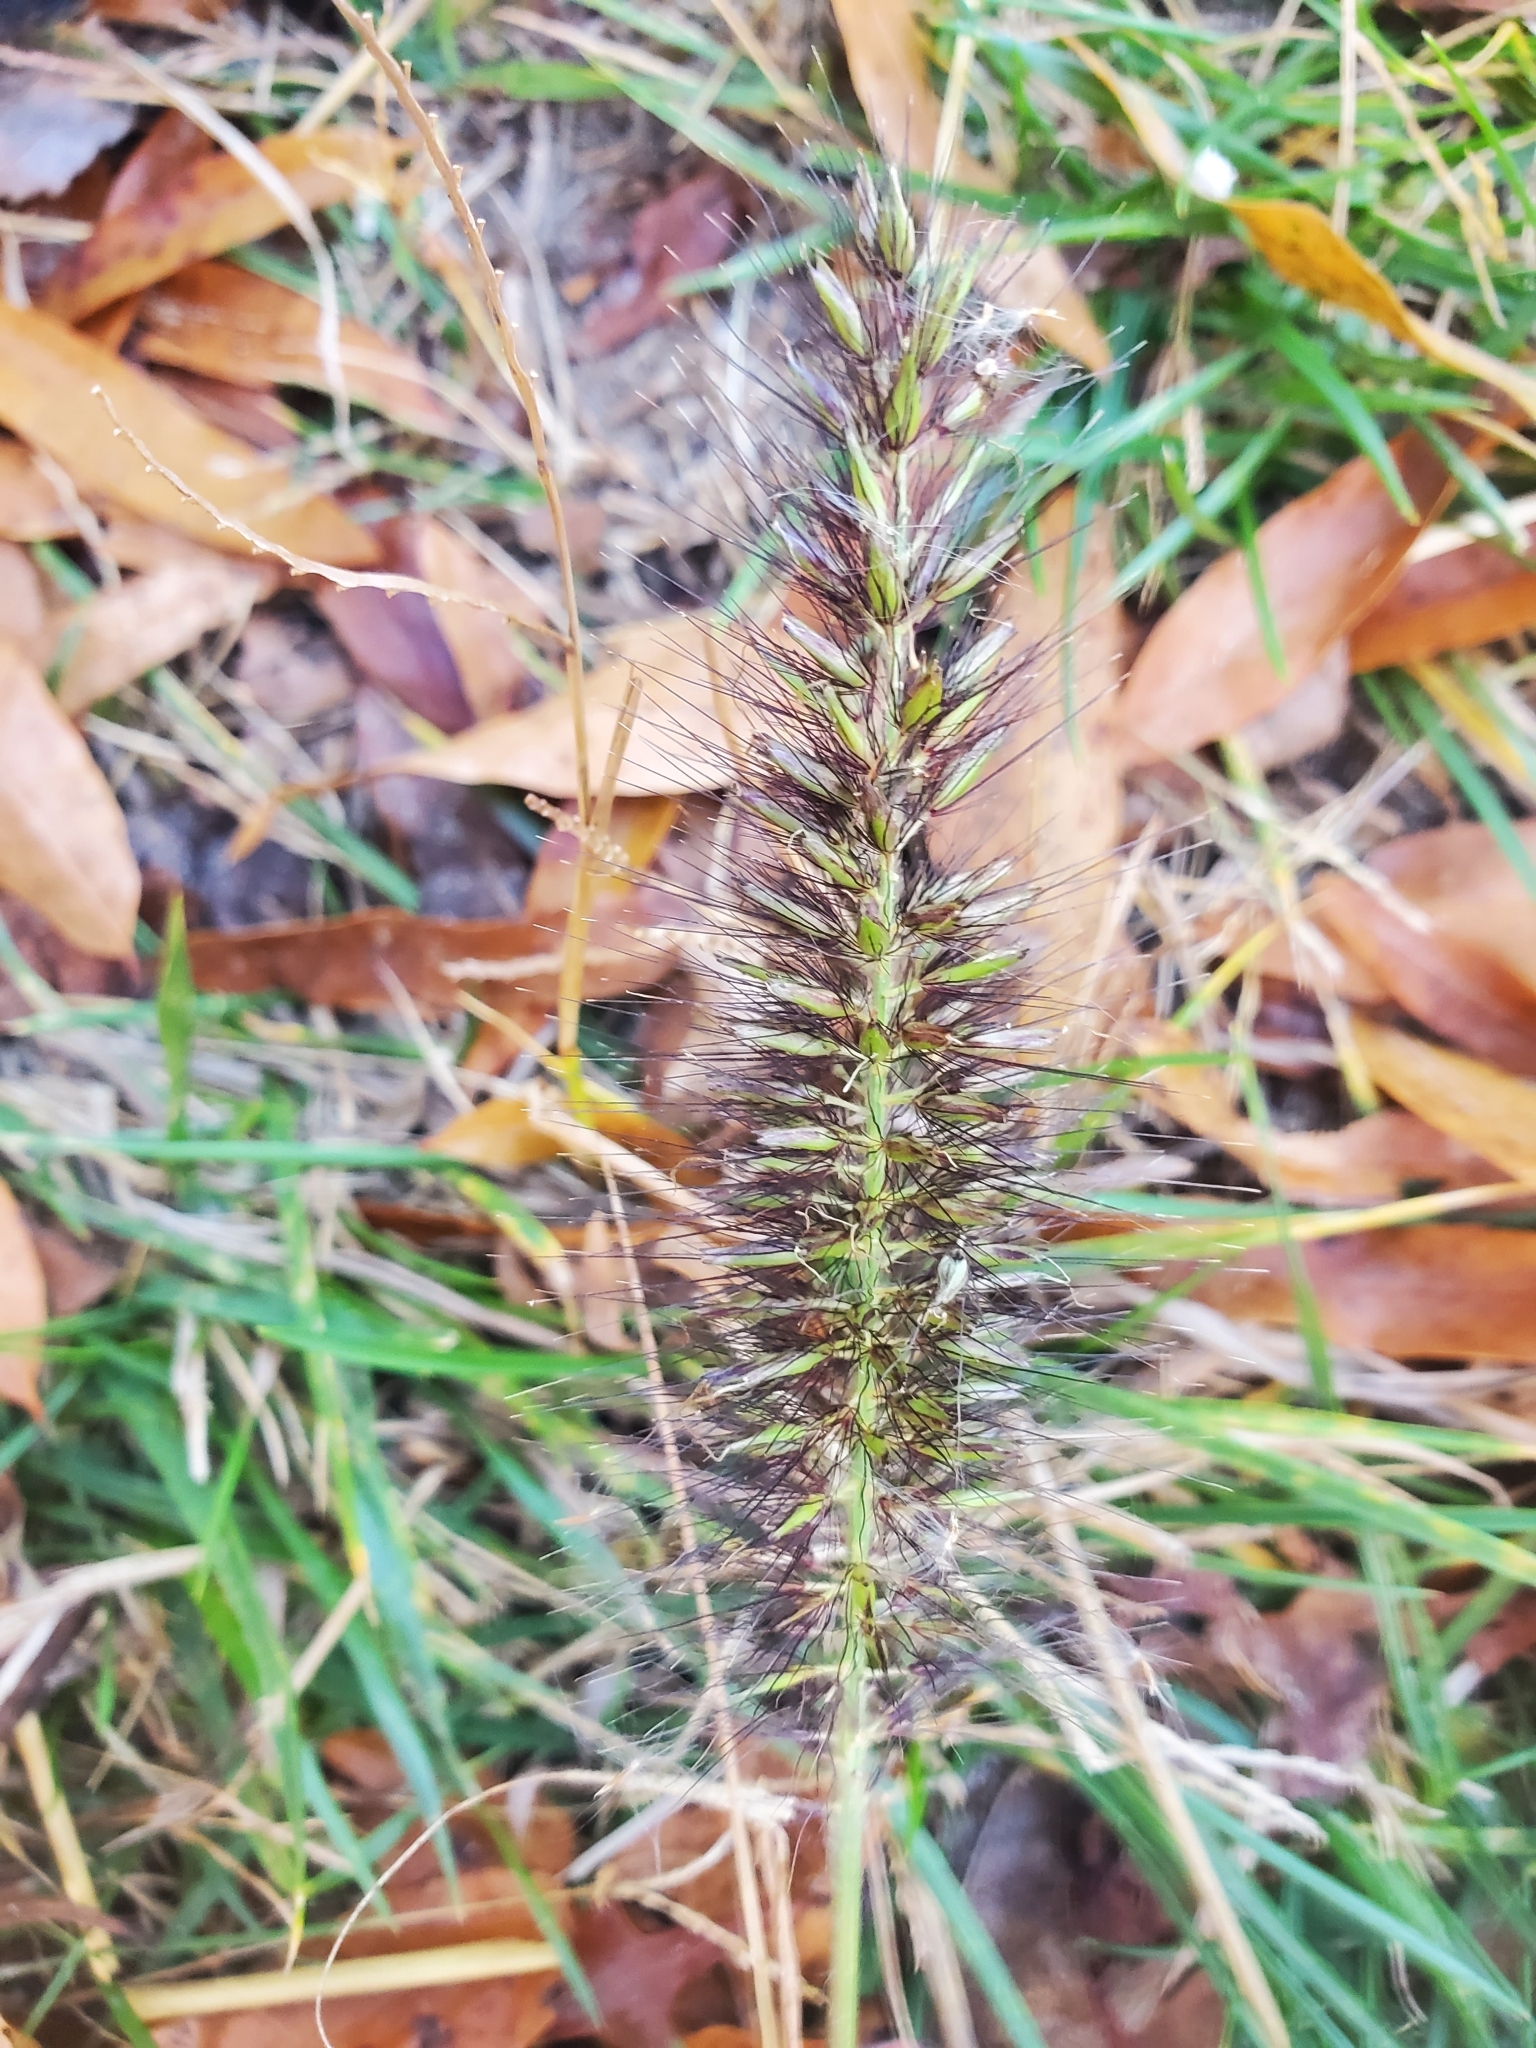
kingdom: Plantae
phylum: Tracheophyta
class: Liliopsida
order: Poales
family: Poaceae
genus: Cenchrus
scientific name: Cenchrus alopecuroides
